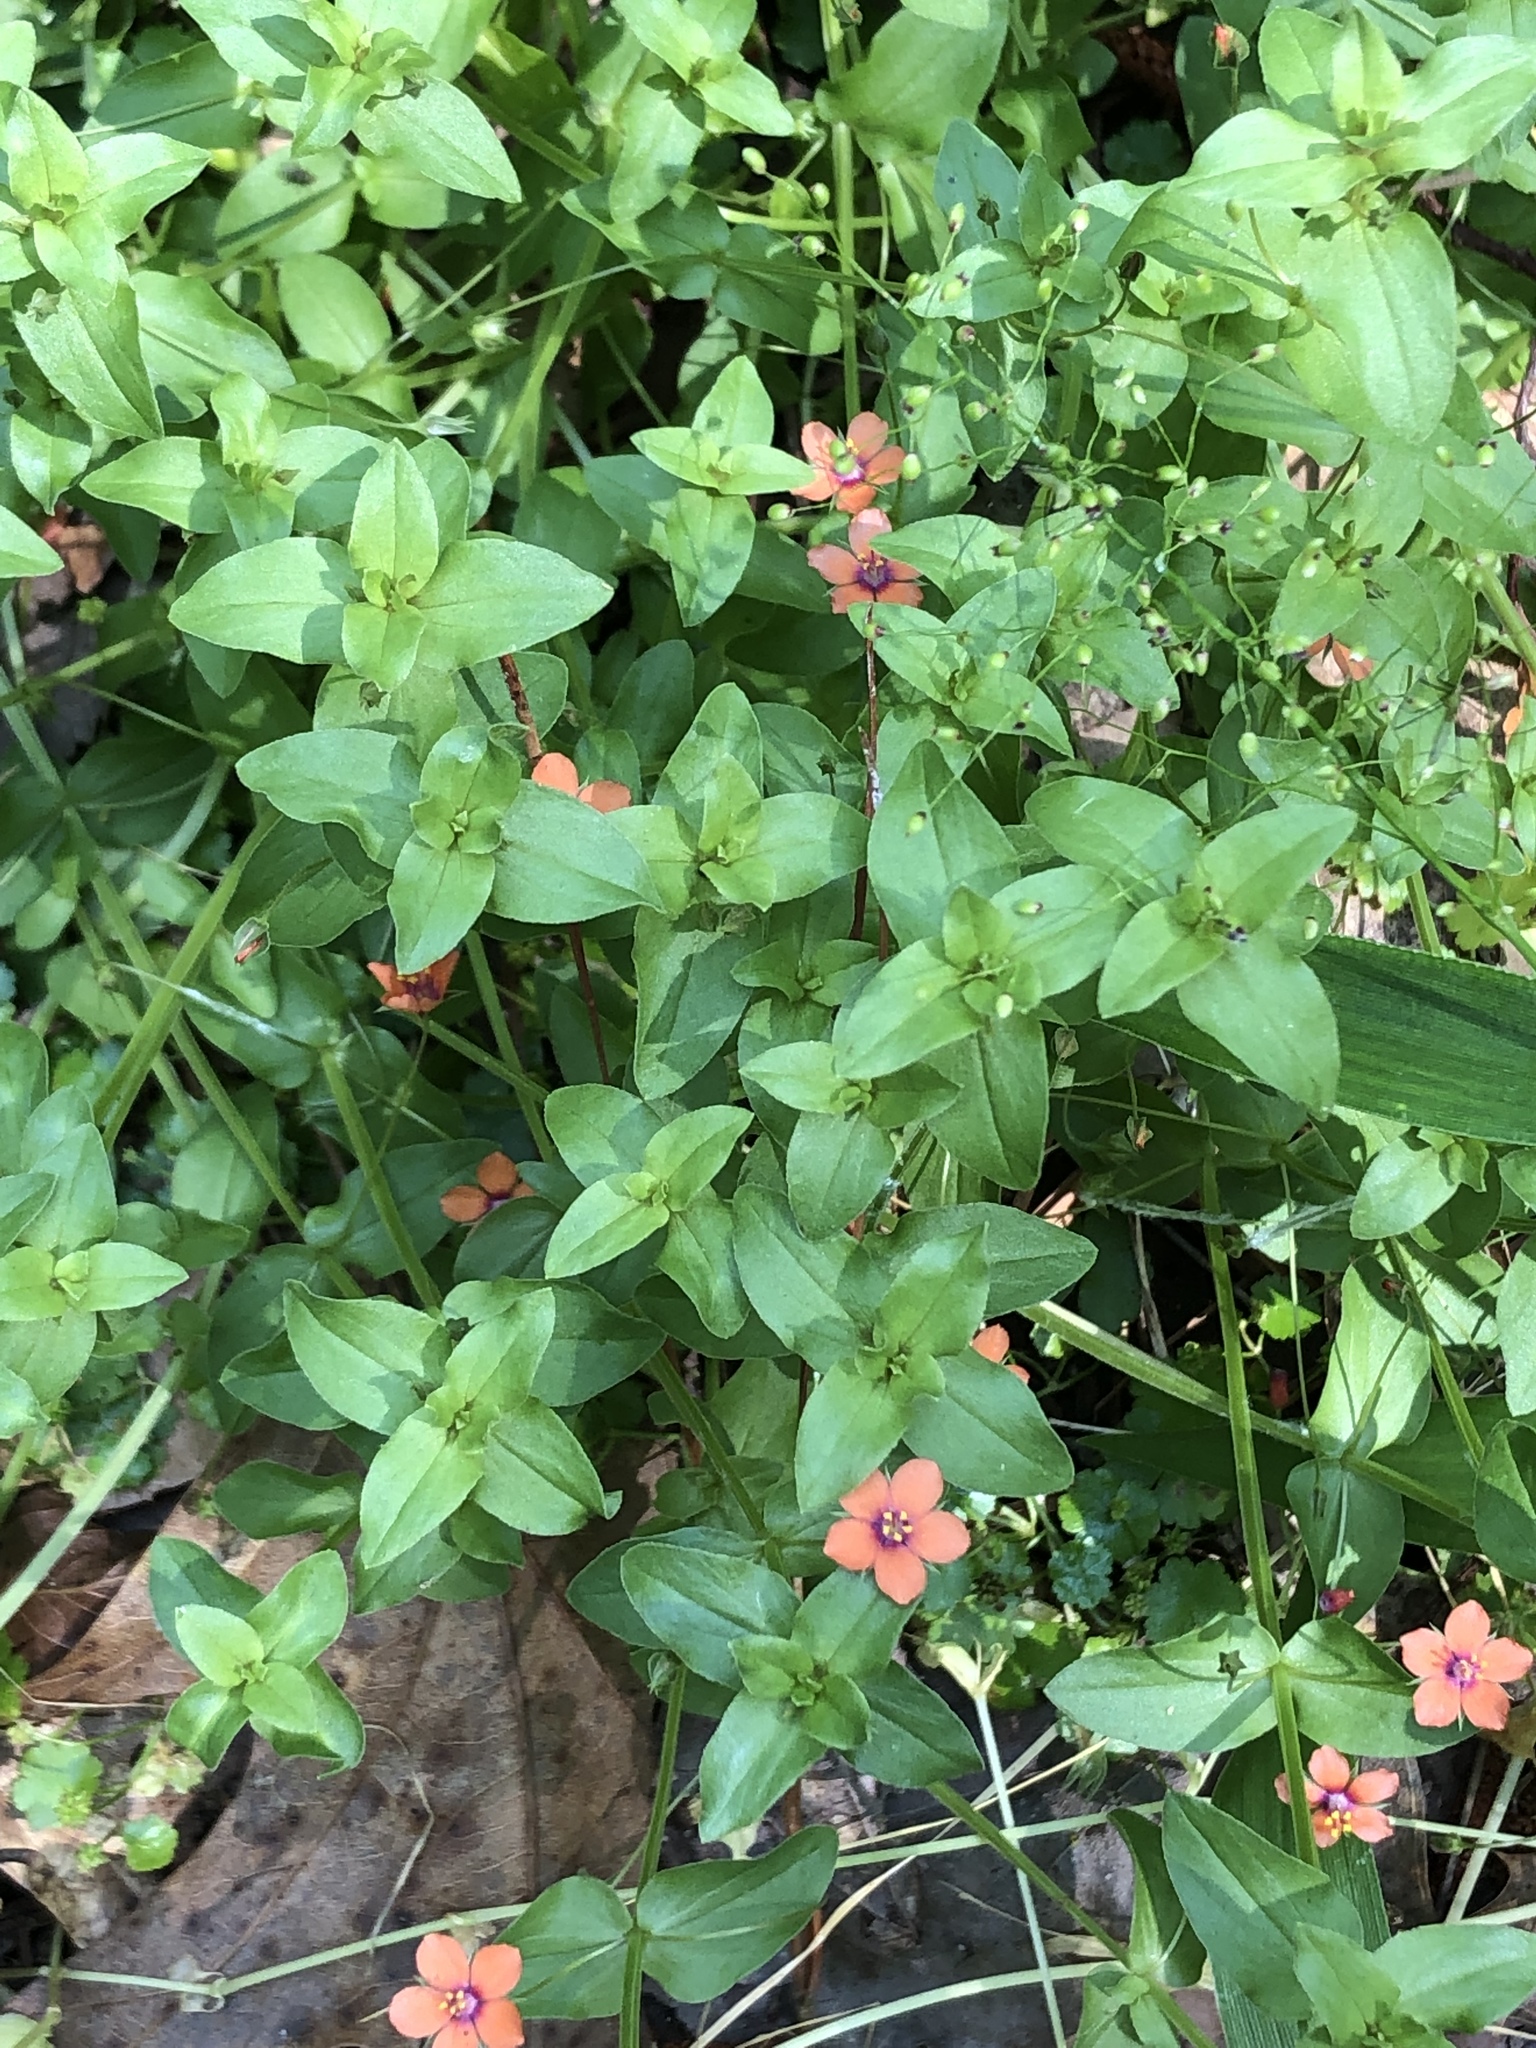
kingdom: Plantae
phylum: Tracheophyta
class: Magnoliopsida
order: Ericales
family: Primulaceae
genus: Lysimachia
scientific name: Lysimachia arvensis
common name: Scarlet pimpernel
